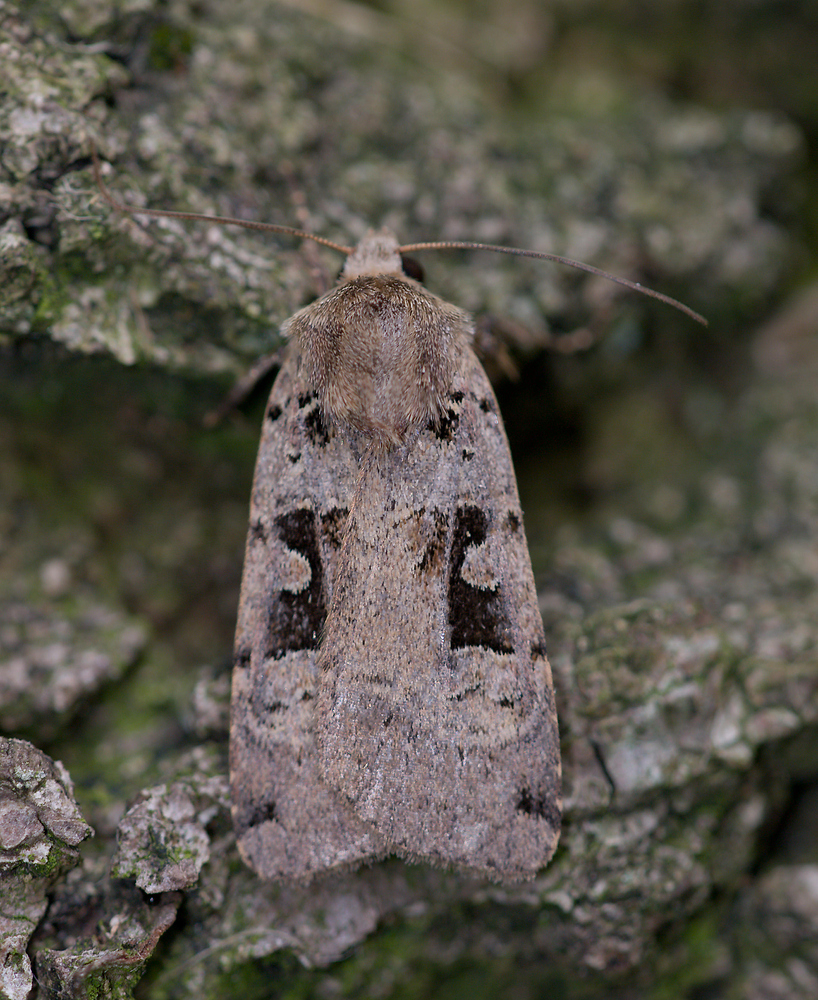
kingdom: Animalia
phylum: Arthropoda
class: Insecta
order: Lepidoptera
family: Noctuidae
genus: Xestia
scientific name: Xestia triangulum
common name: Double square-spot
